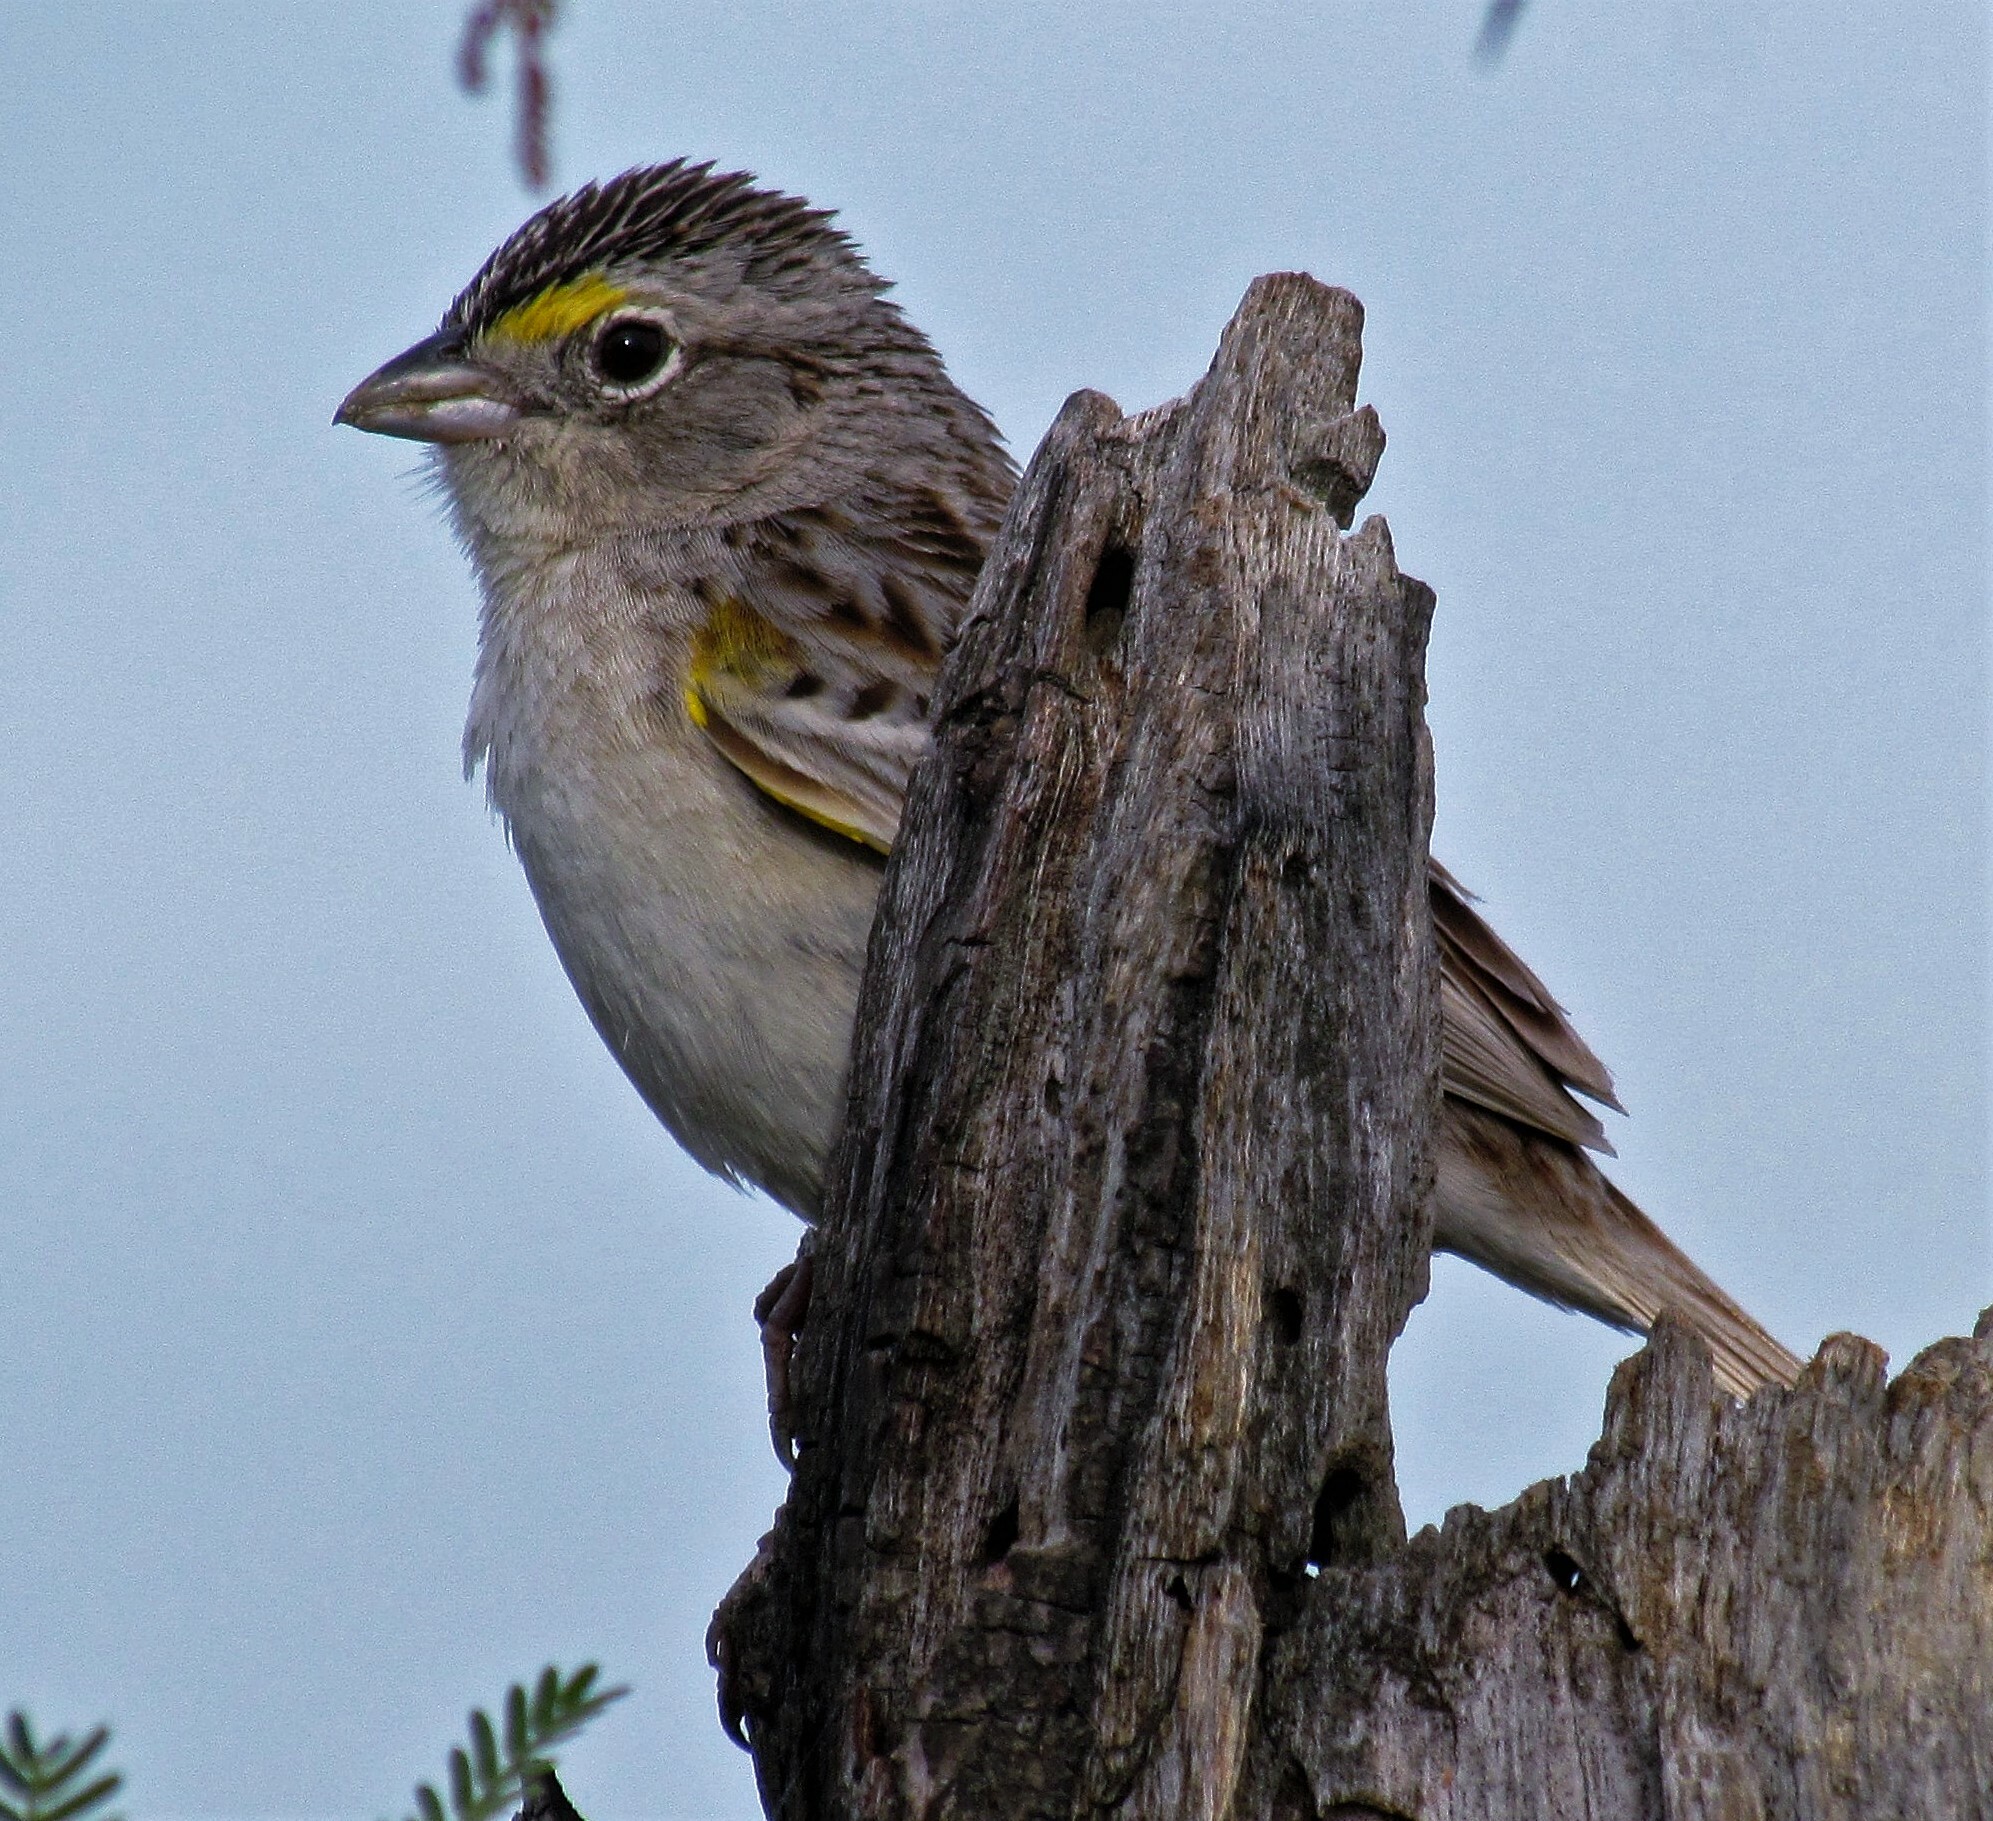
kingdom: Animalia
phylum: Chordata
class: Aves
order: Passeriformes
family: Passerellidae
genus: Ammodramus
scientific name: Ammodramus humeralis
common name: Grassland sparrow
